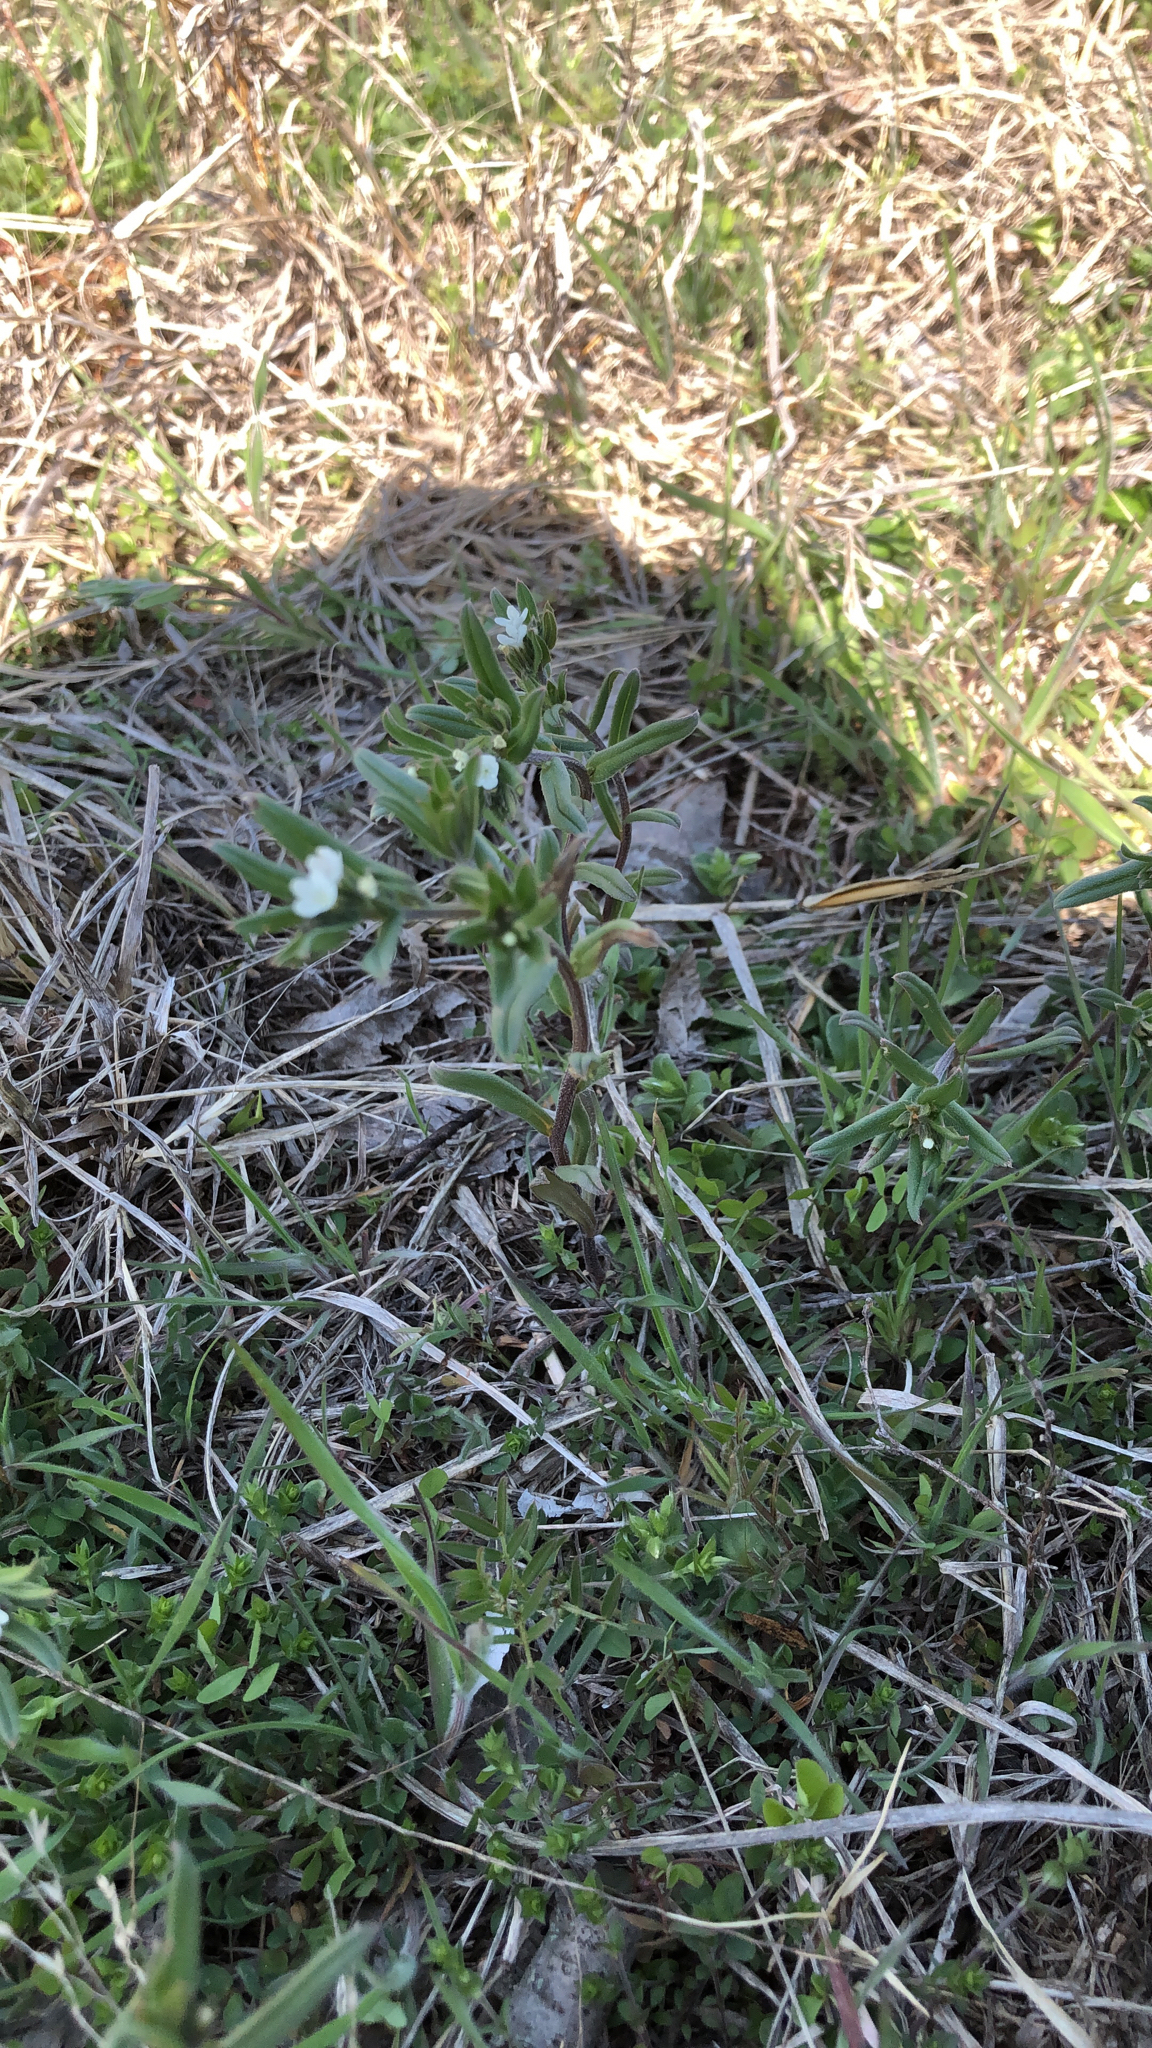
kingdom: Plantae
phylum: Tracheophyta
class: Magnoliopsida
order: Boraginales
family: Boraginaceae
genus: Buglossoides
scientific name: Buglossoides arvensis
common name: Corn gromwell
